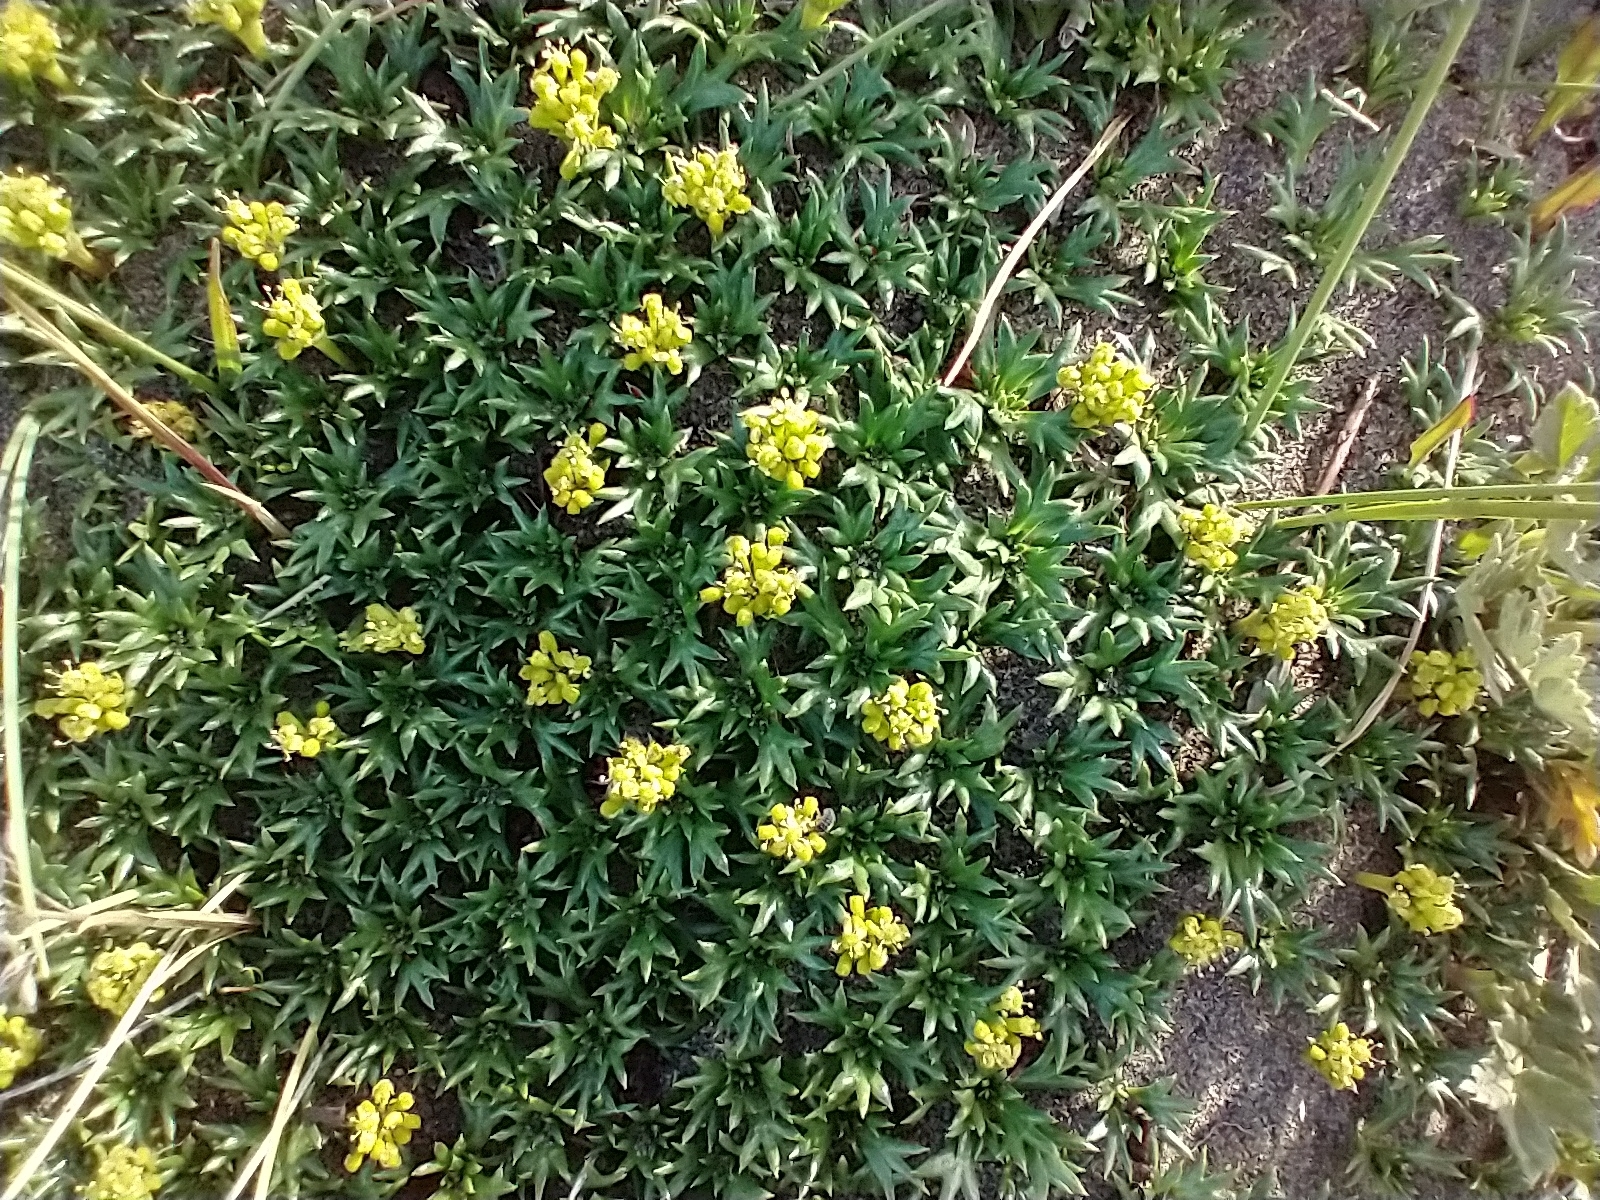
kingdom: Plantae
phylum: Tracheophyta
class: Magnoliopsida
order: Apiales
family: Apiaceae
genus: Azorella
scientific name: Azorella trifurcata
